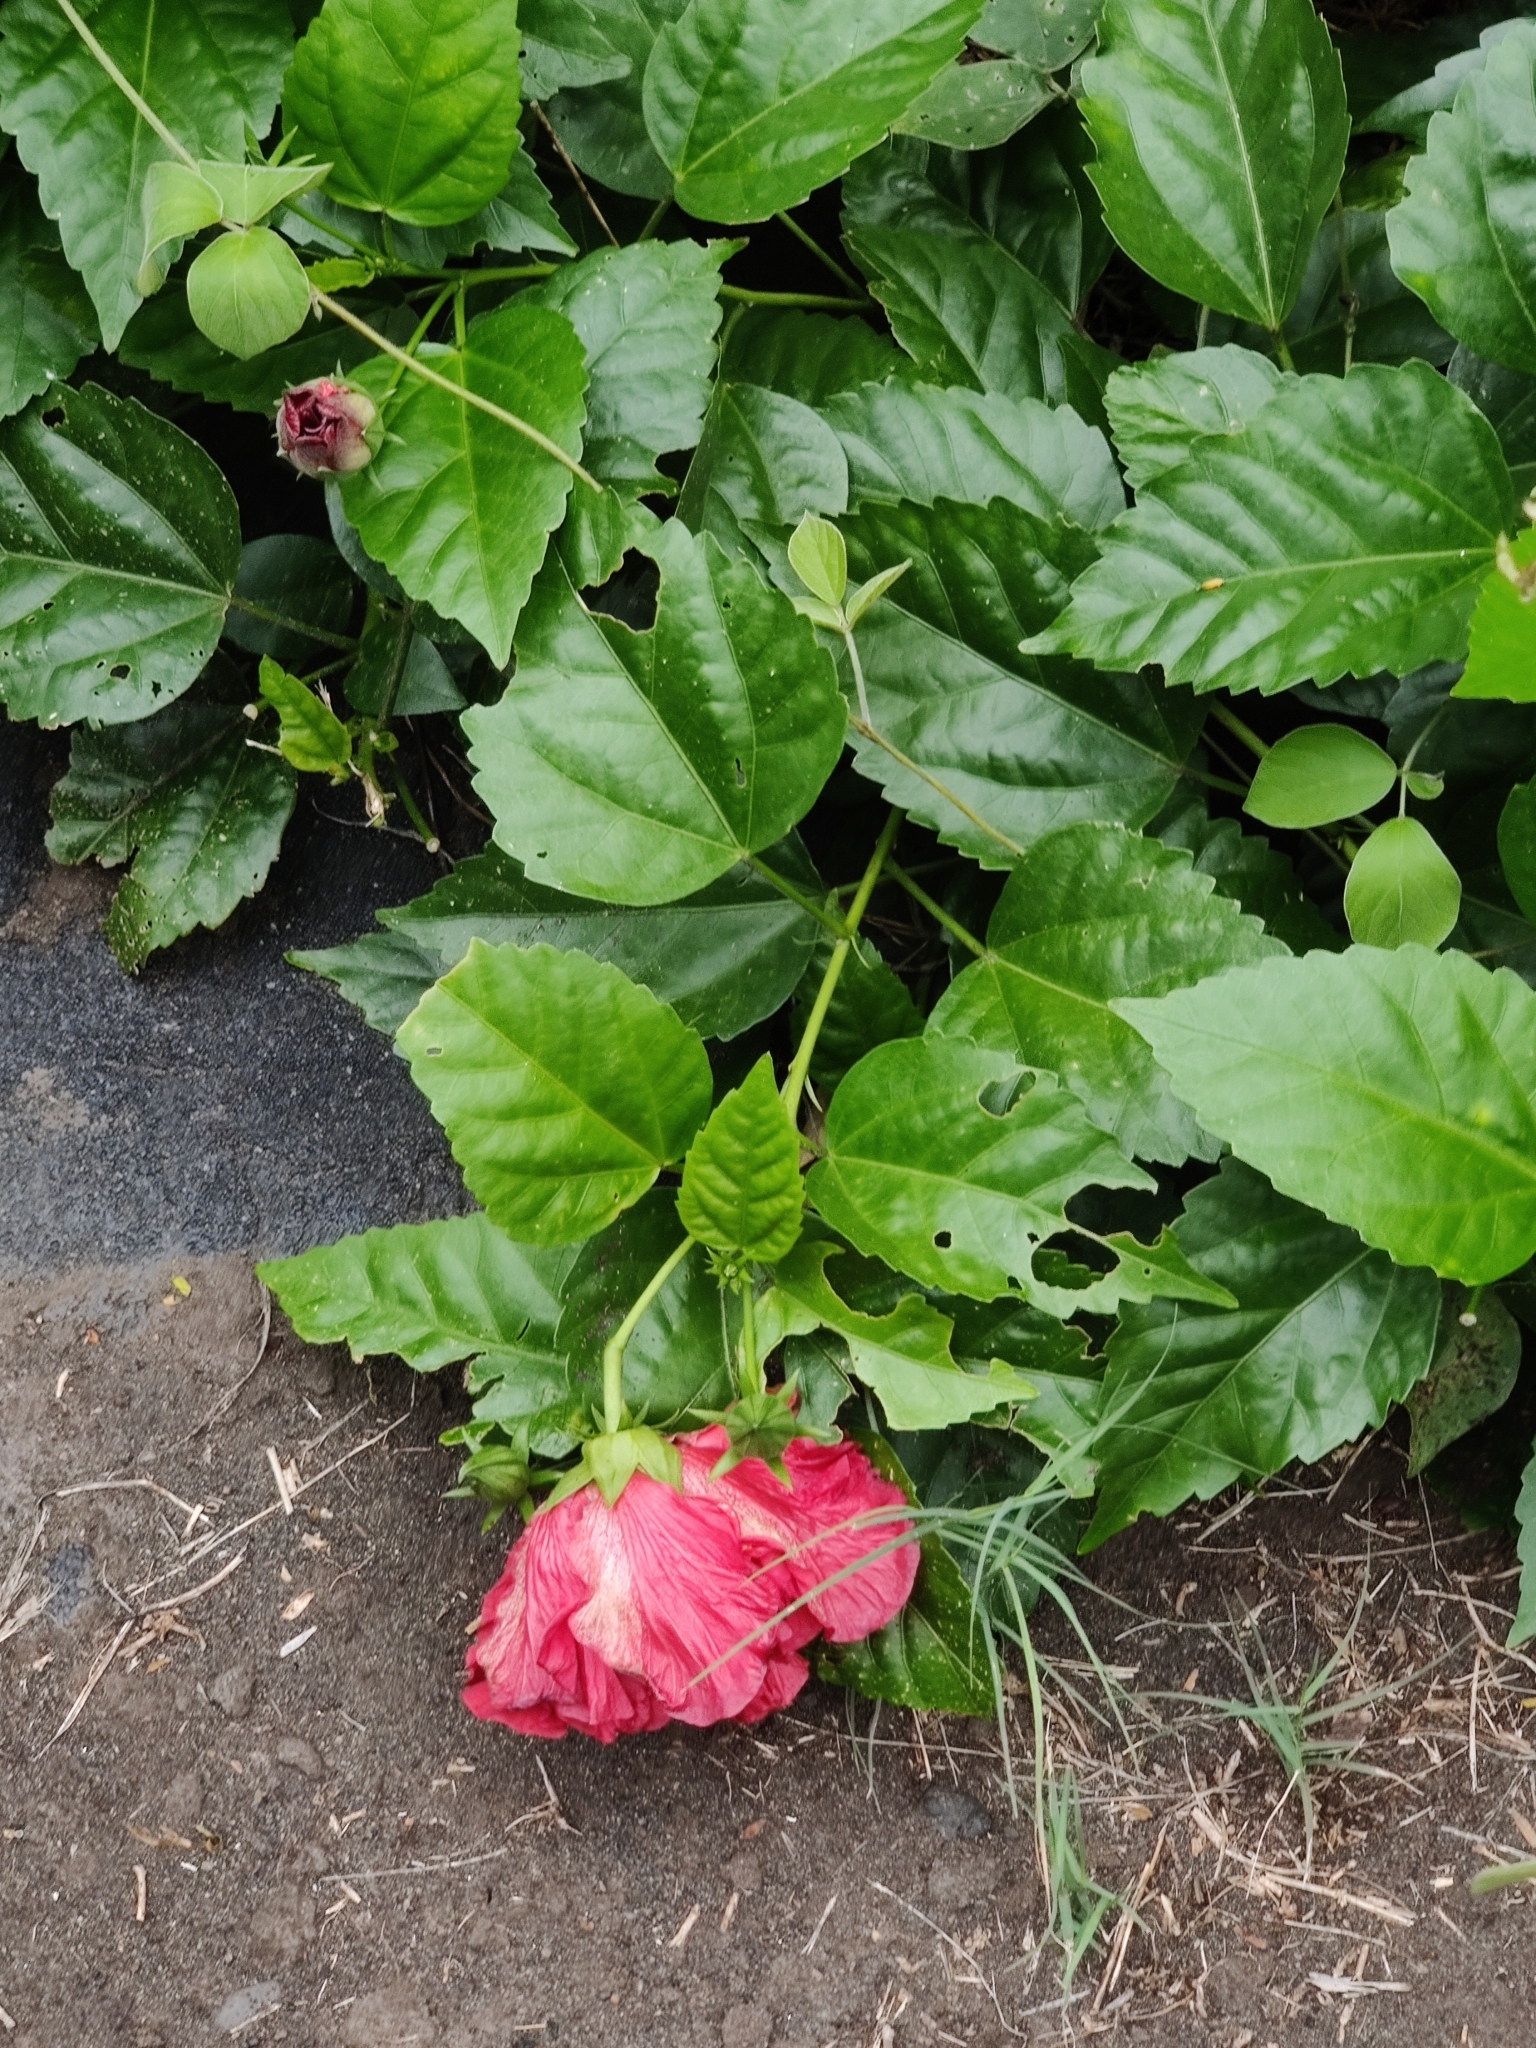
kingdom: Plantae
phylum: Tracheophyta
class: Magnoliopsida
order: Malvales
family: Malvaceae
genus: Malvaviscus
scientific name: Malvaviscus penduliflorus
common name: Mazapan
